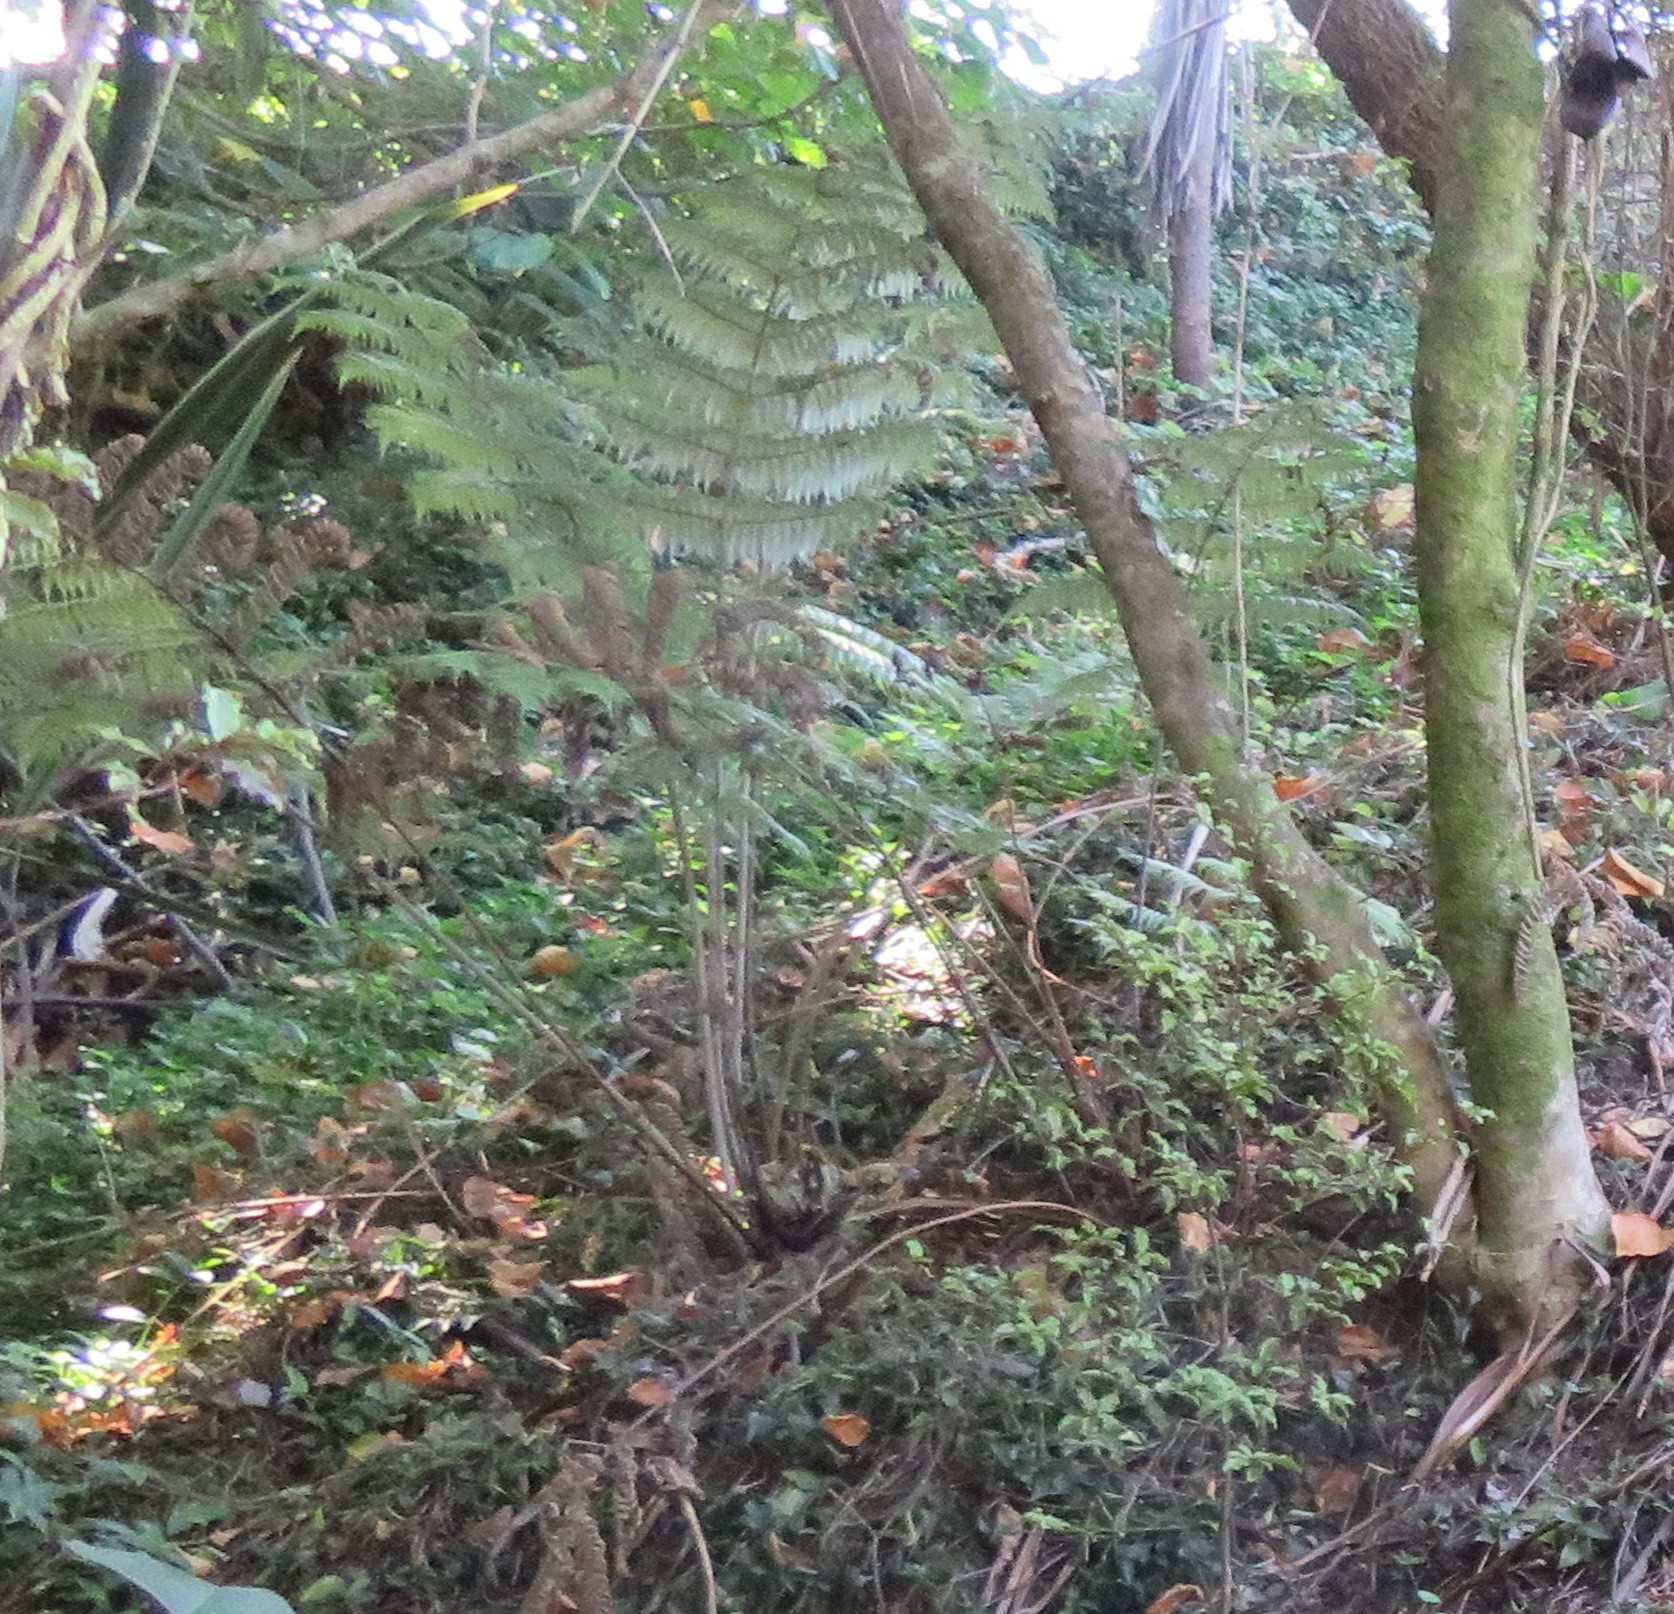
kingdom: Plantae
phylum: Tracheophyta
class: Polypodiopsida
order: Cyatheales
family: Cyatheaceae
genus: Alsophila
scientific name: Alsophila dealbata
